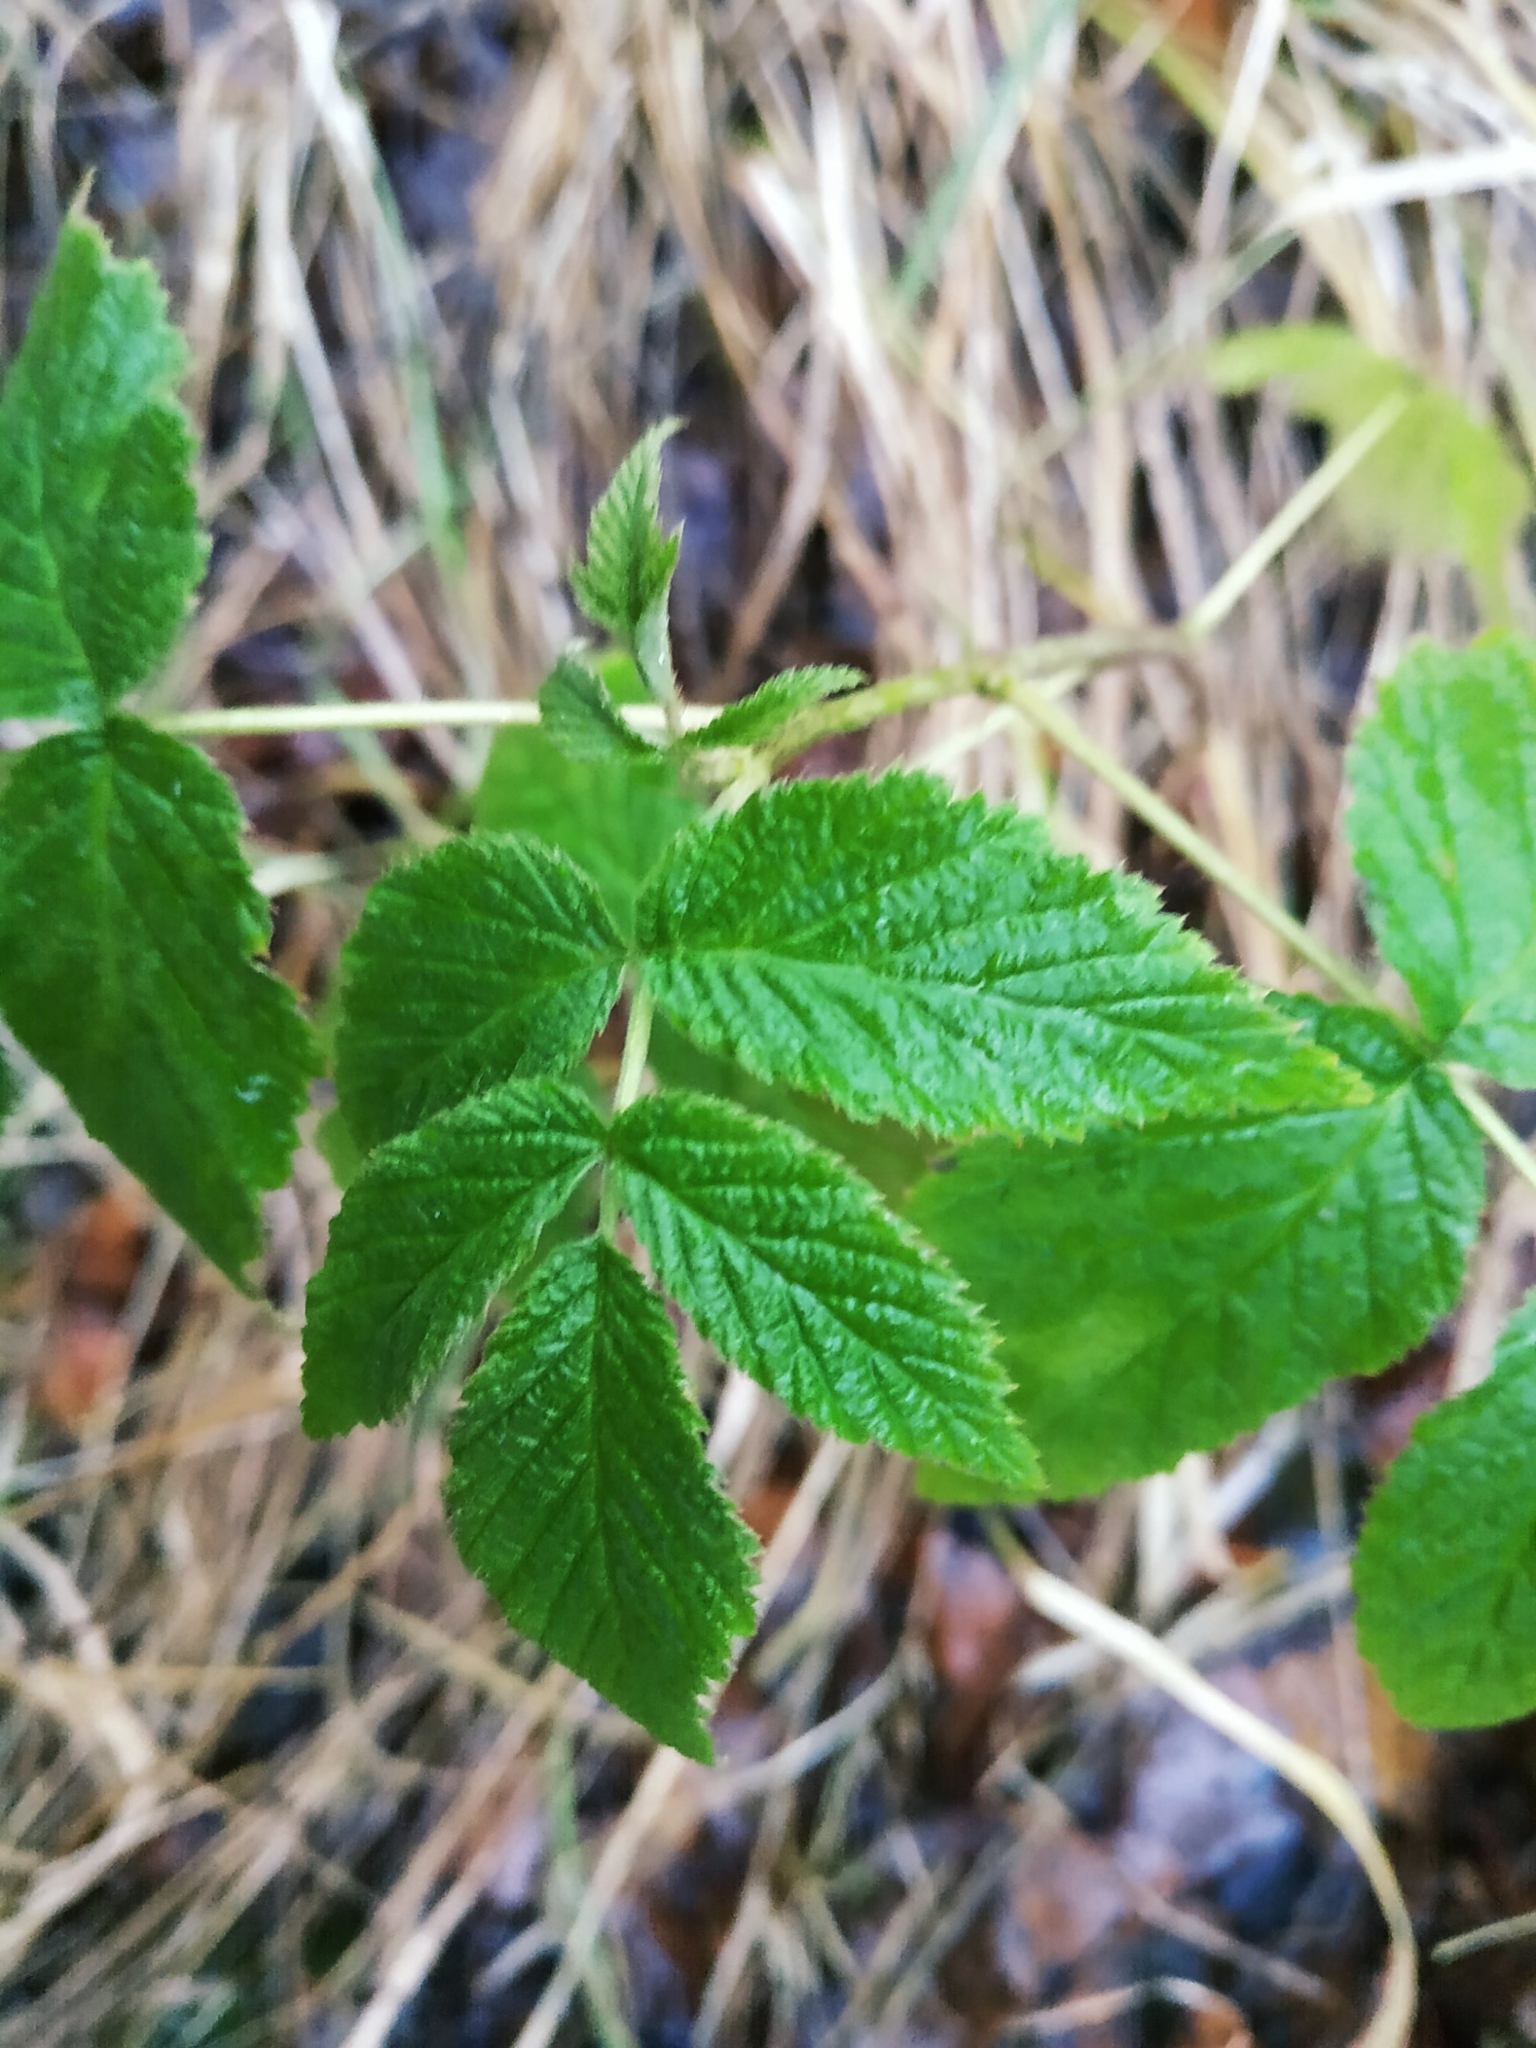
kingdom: Plantae
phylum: Tracheophyta
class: Magnoliopsida
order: Rosales
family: Rosaceae
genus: Rubus
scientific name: Rubus idaeus
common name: Raspberry
